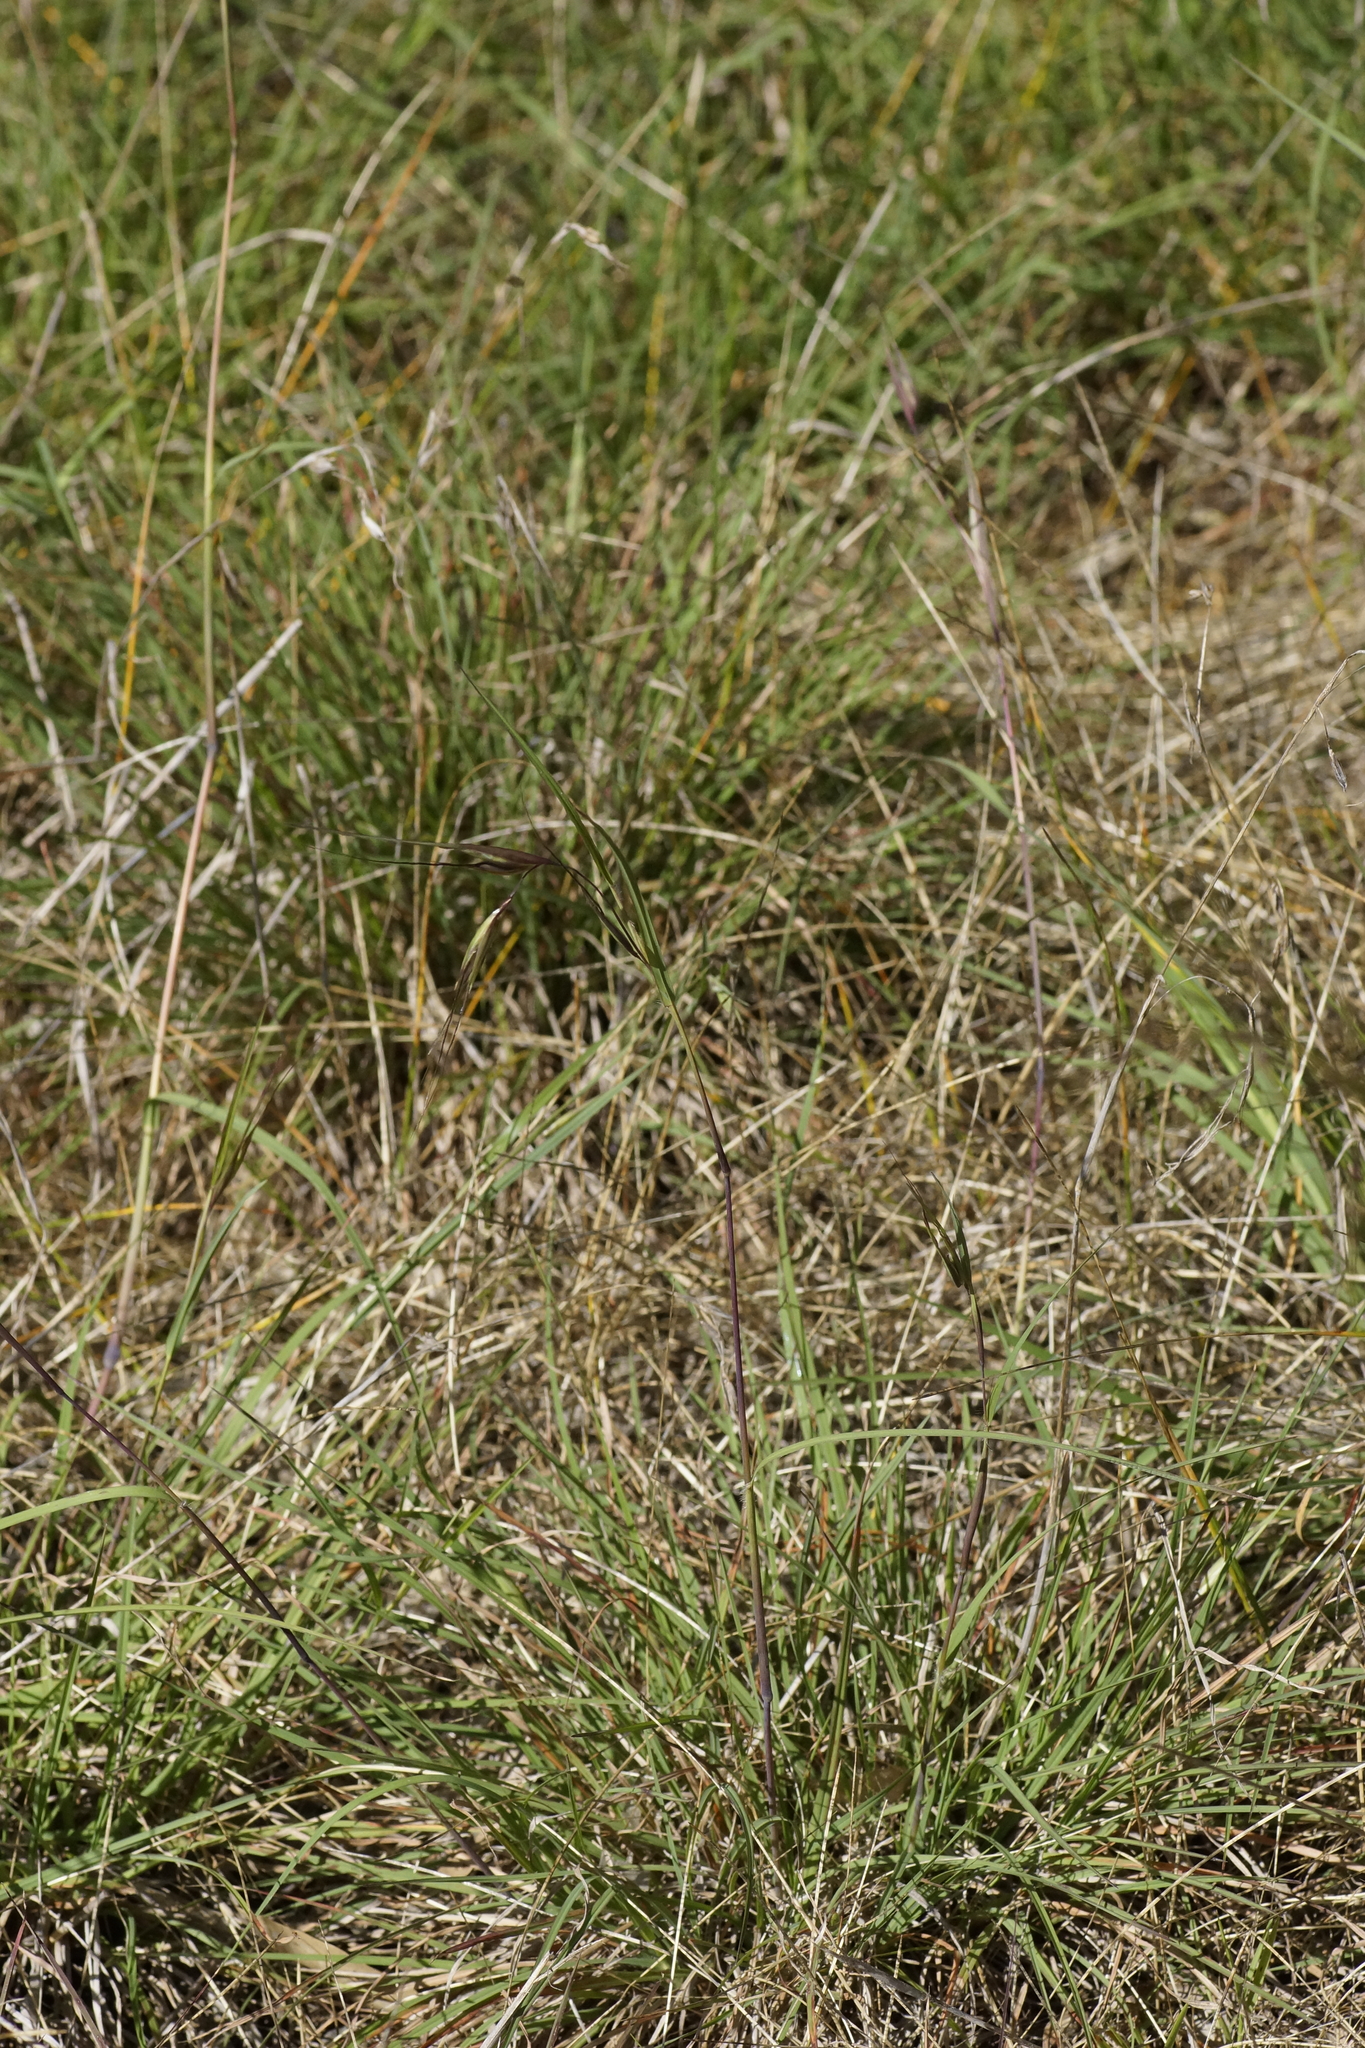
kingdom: Plantae
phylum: Tracheophyta
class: Liliopsida
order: Poales
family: Poaceae
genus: Themeda
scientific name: Themeda triandra
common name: Kangaroo grass
